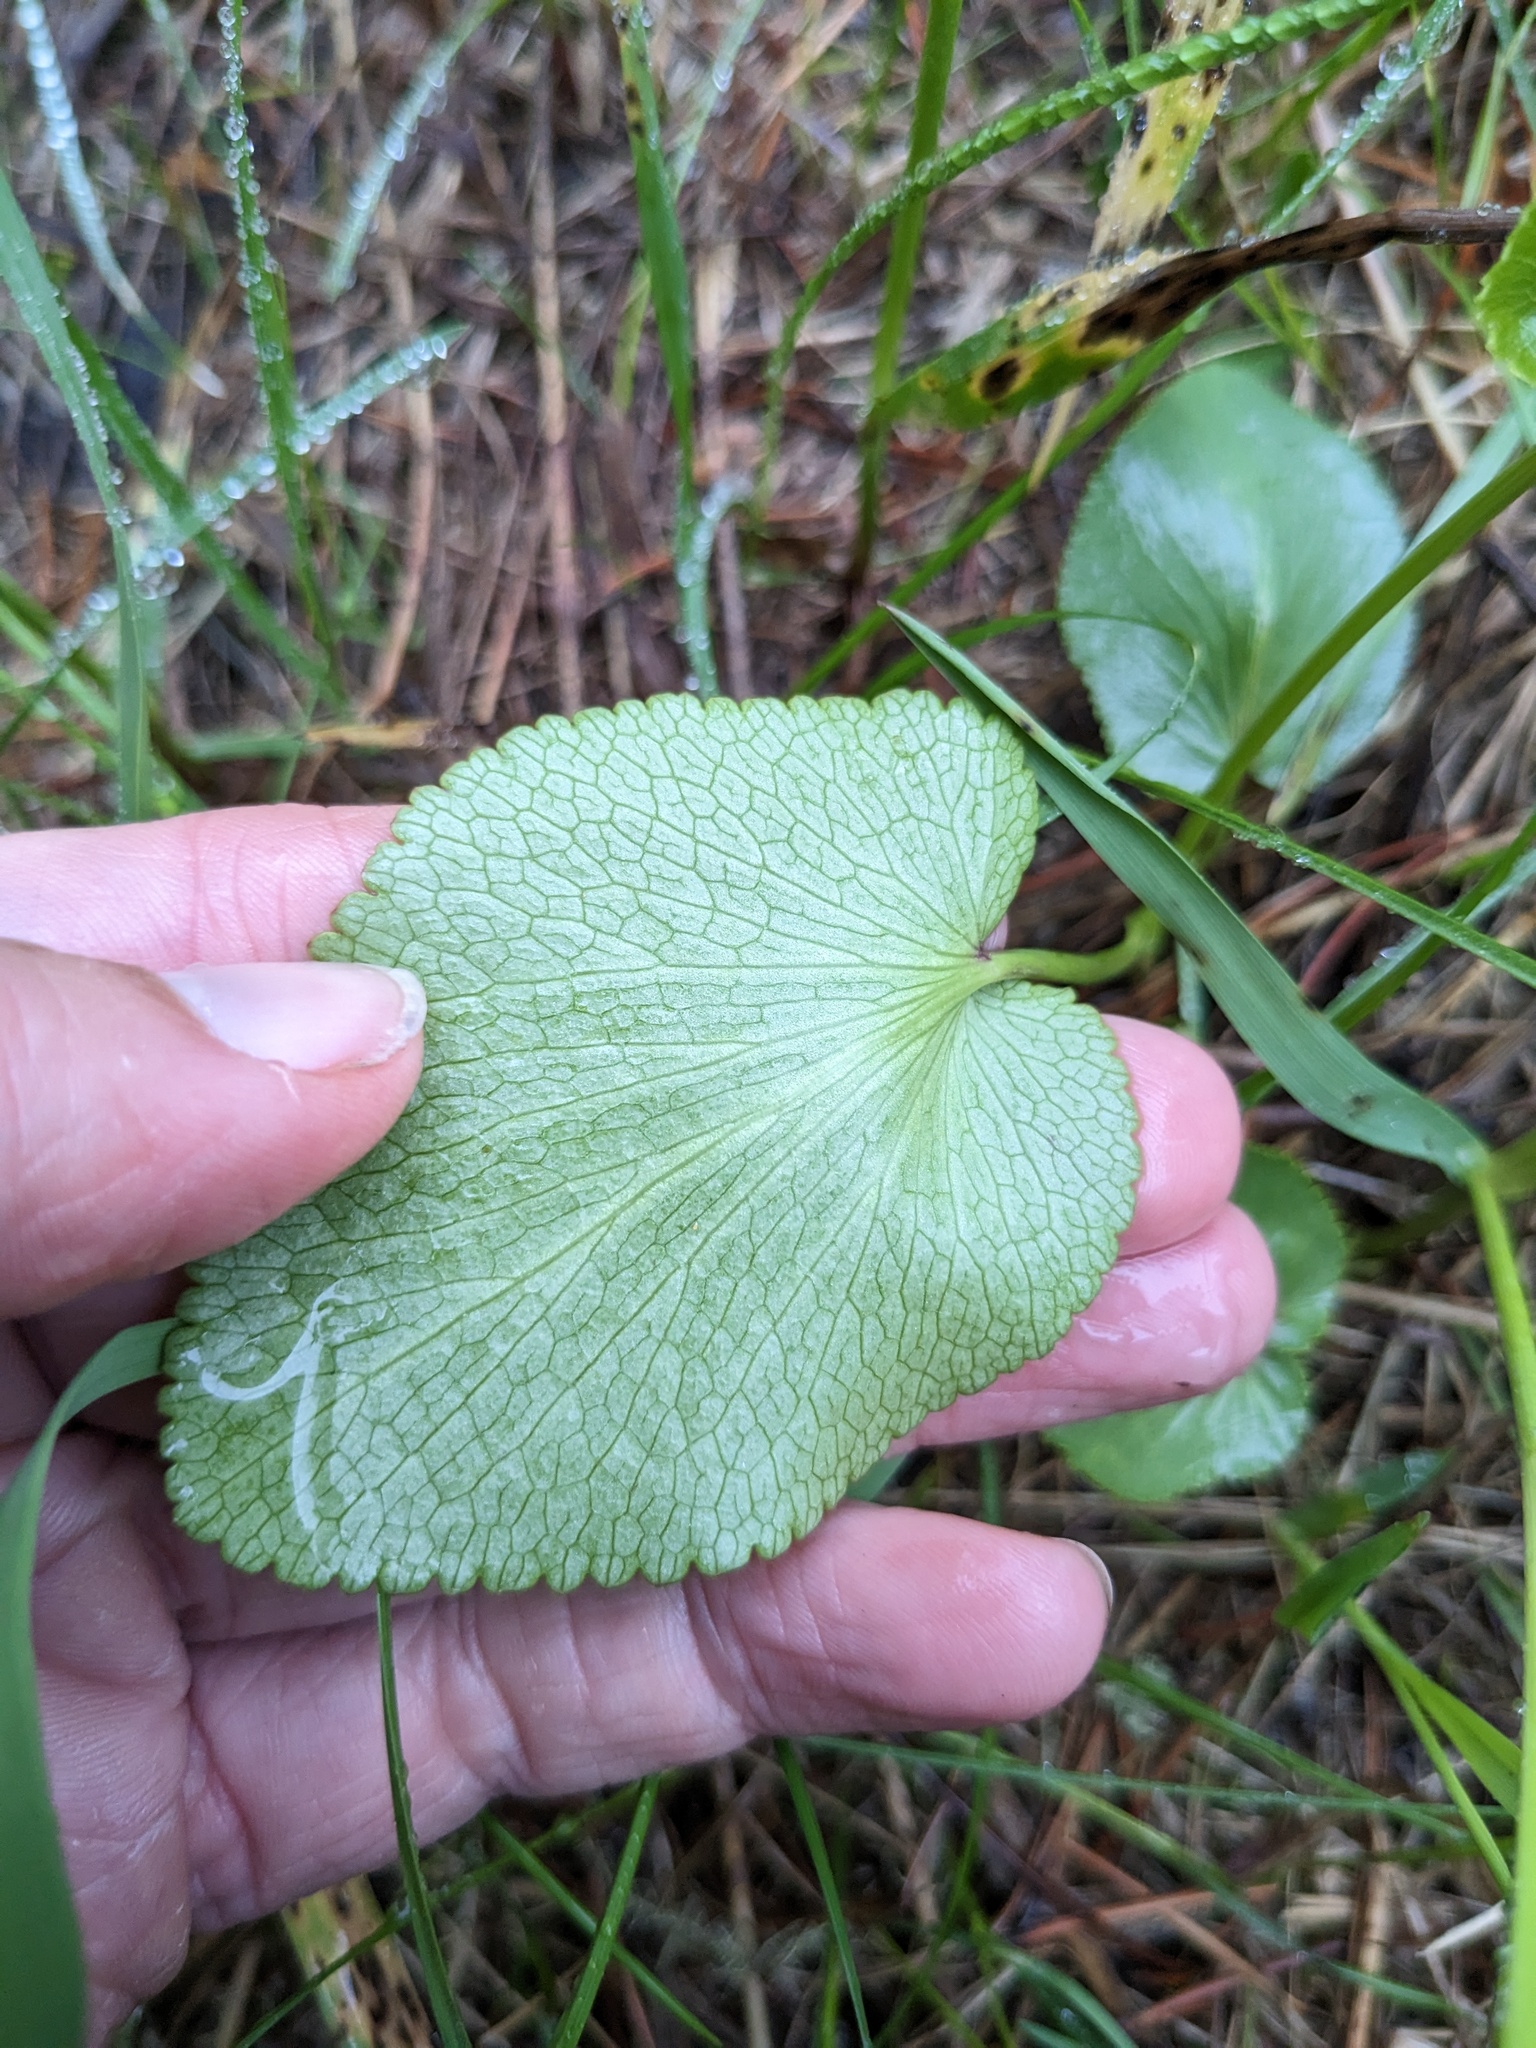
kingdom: Plantae
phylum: Tracheophyta
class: Magnoliopsida
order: Apiales
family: Apiaceae
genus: Zizia
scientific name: Zizia aptera
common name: Heart-leaved alexanders
